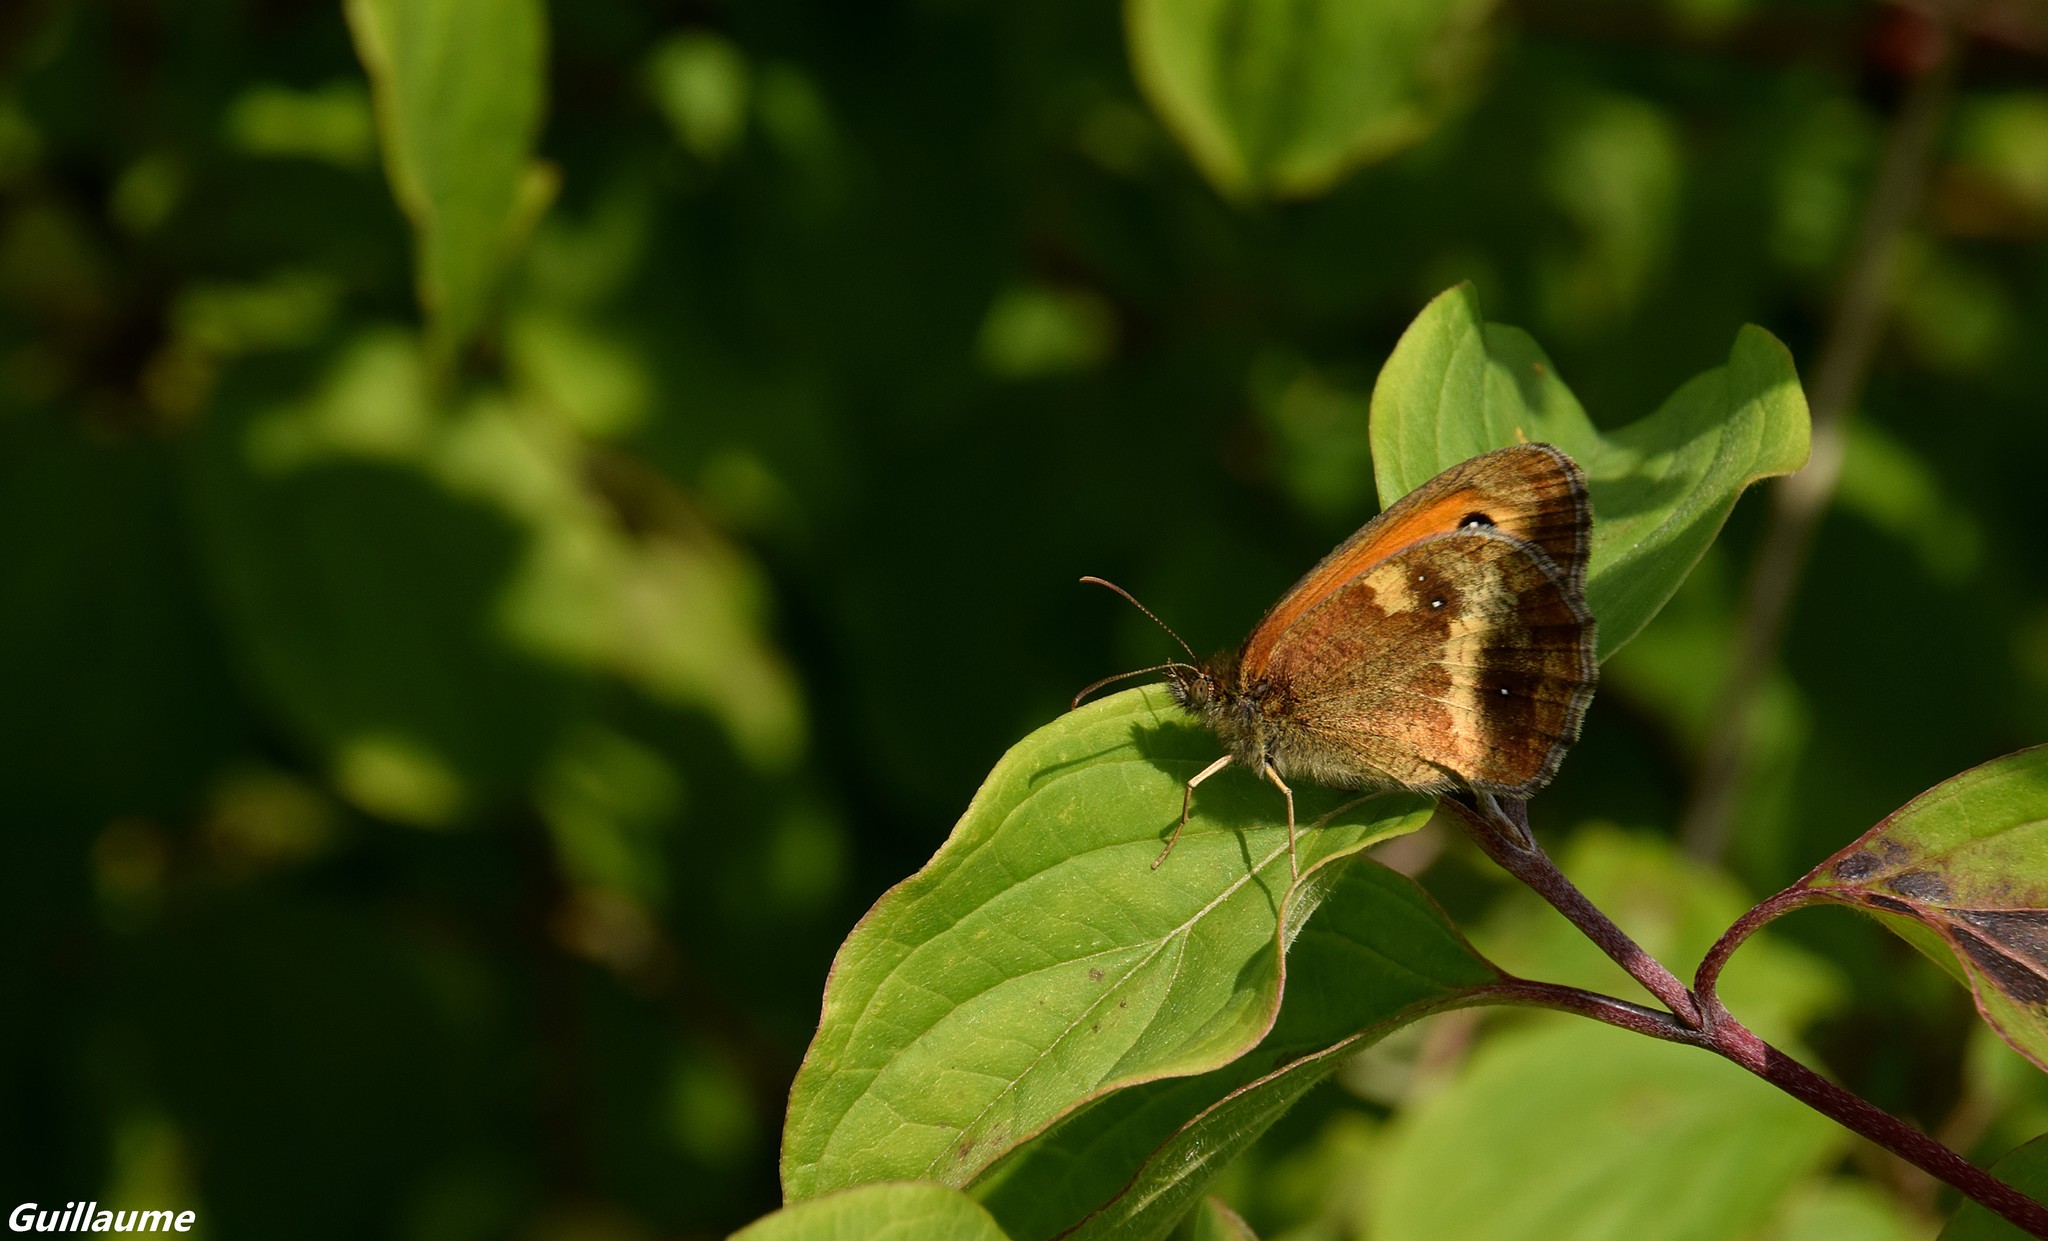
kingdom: Animalia
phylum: Arthropoda
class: Insecta
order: Lepidoptera
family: Nymphalidae
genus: Pyronia
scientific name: Pyronia tithonus
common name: Gatekeeper
